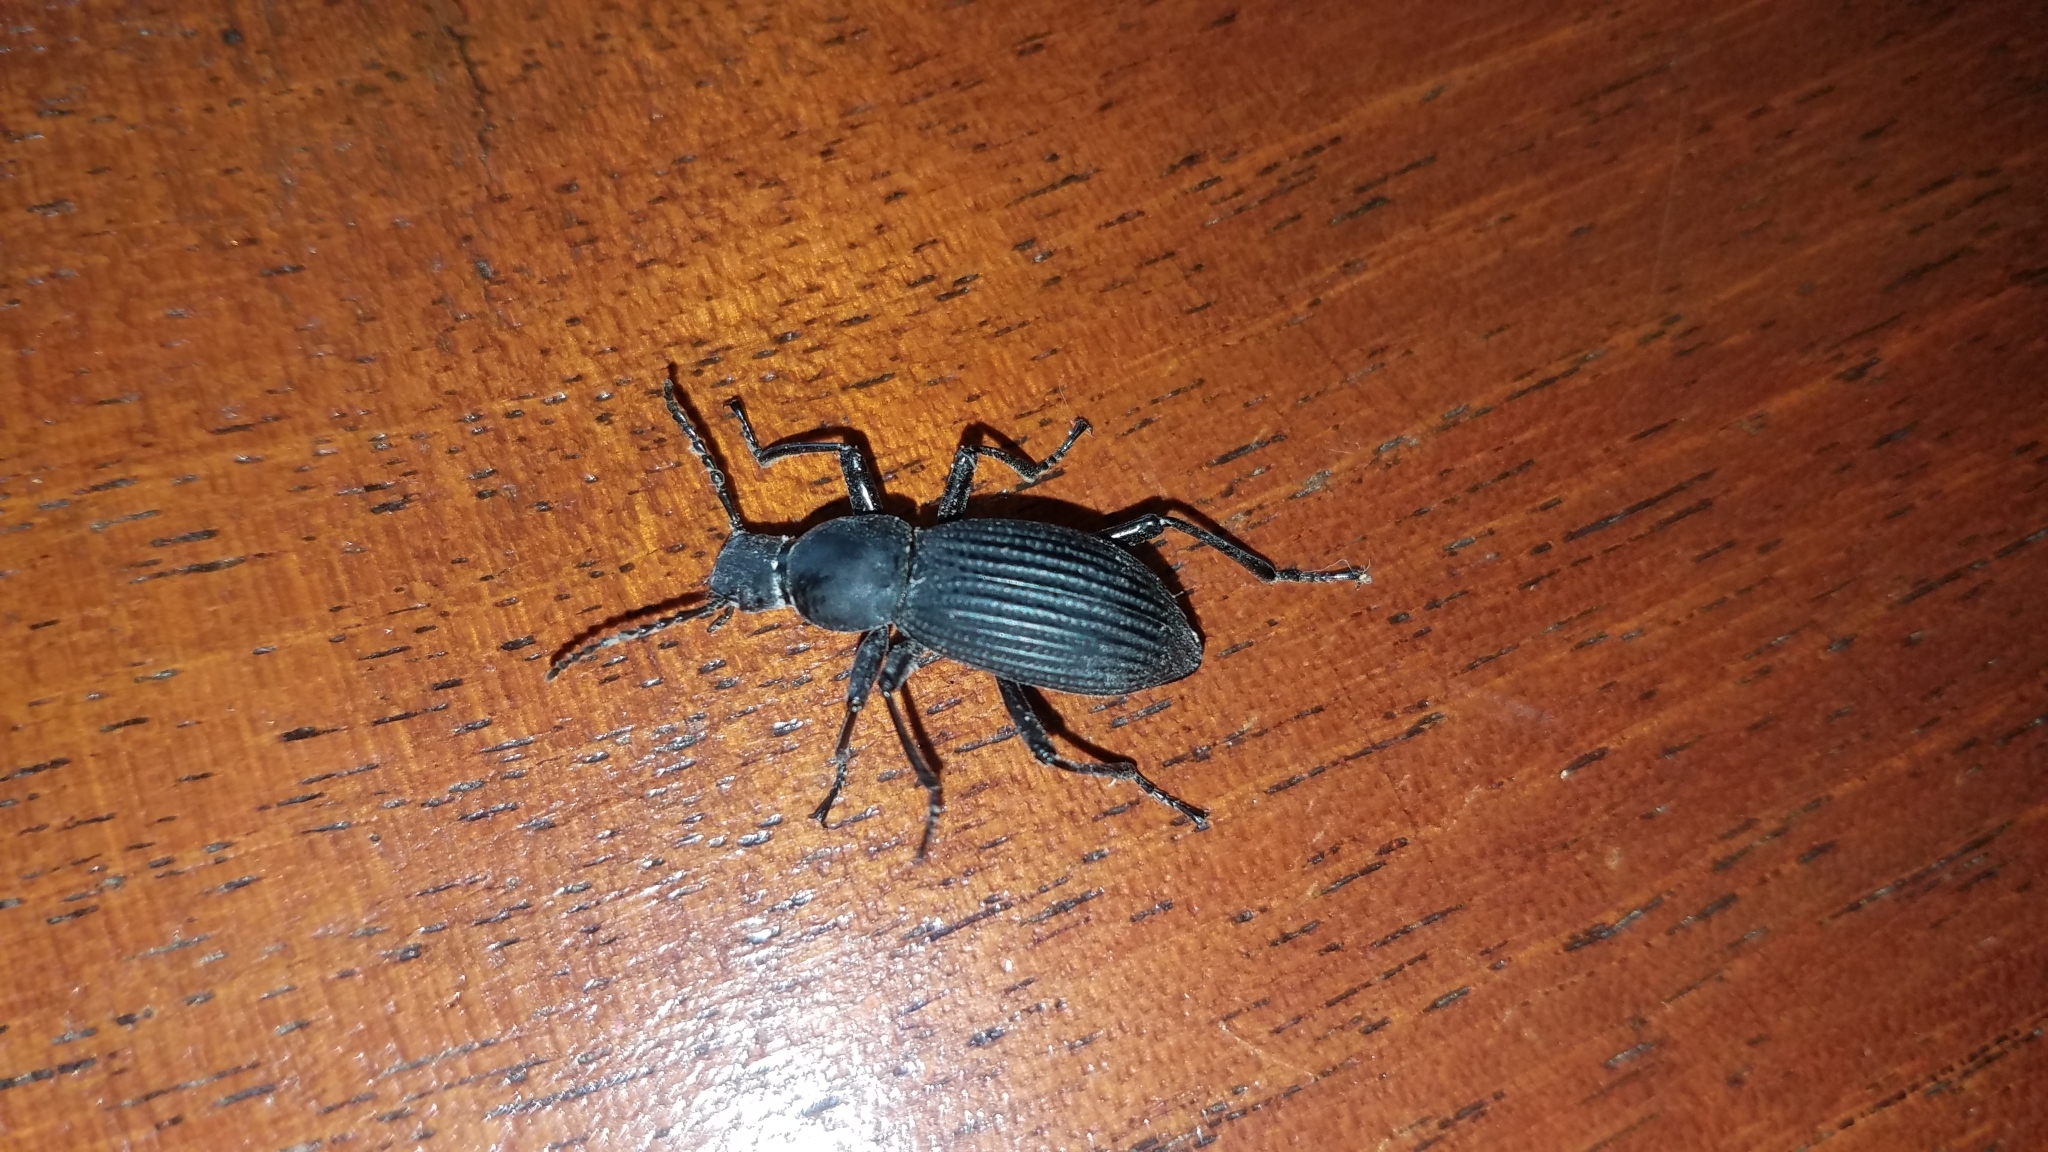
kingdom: Animalia
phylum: Arthropoda
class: Insecta
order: Coleoptera
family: Tenebrionidae
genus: Rhinandrus
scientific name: Rhinandrus elongatus
